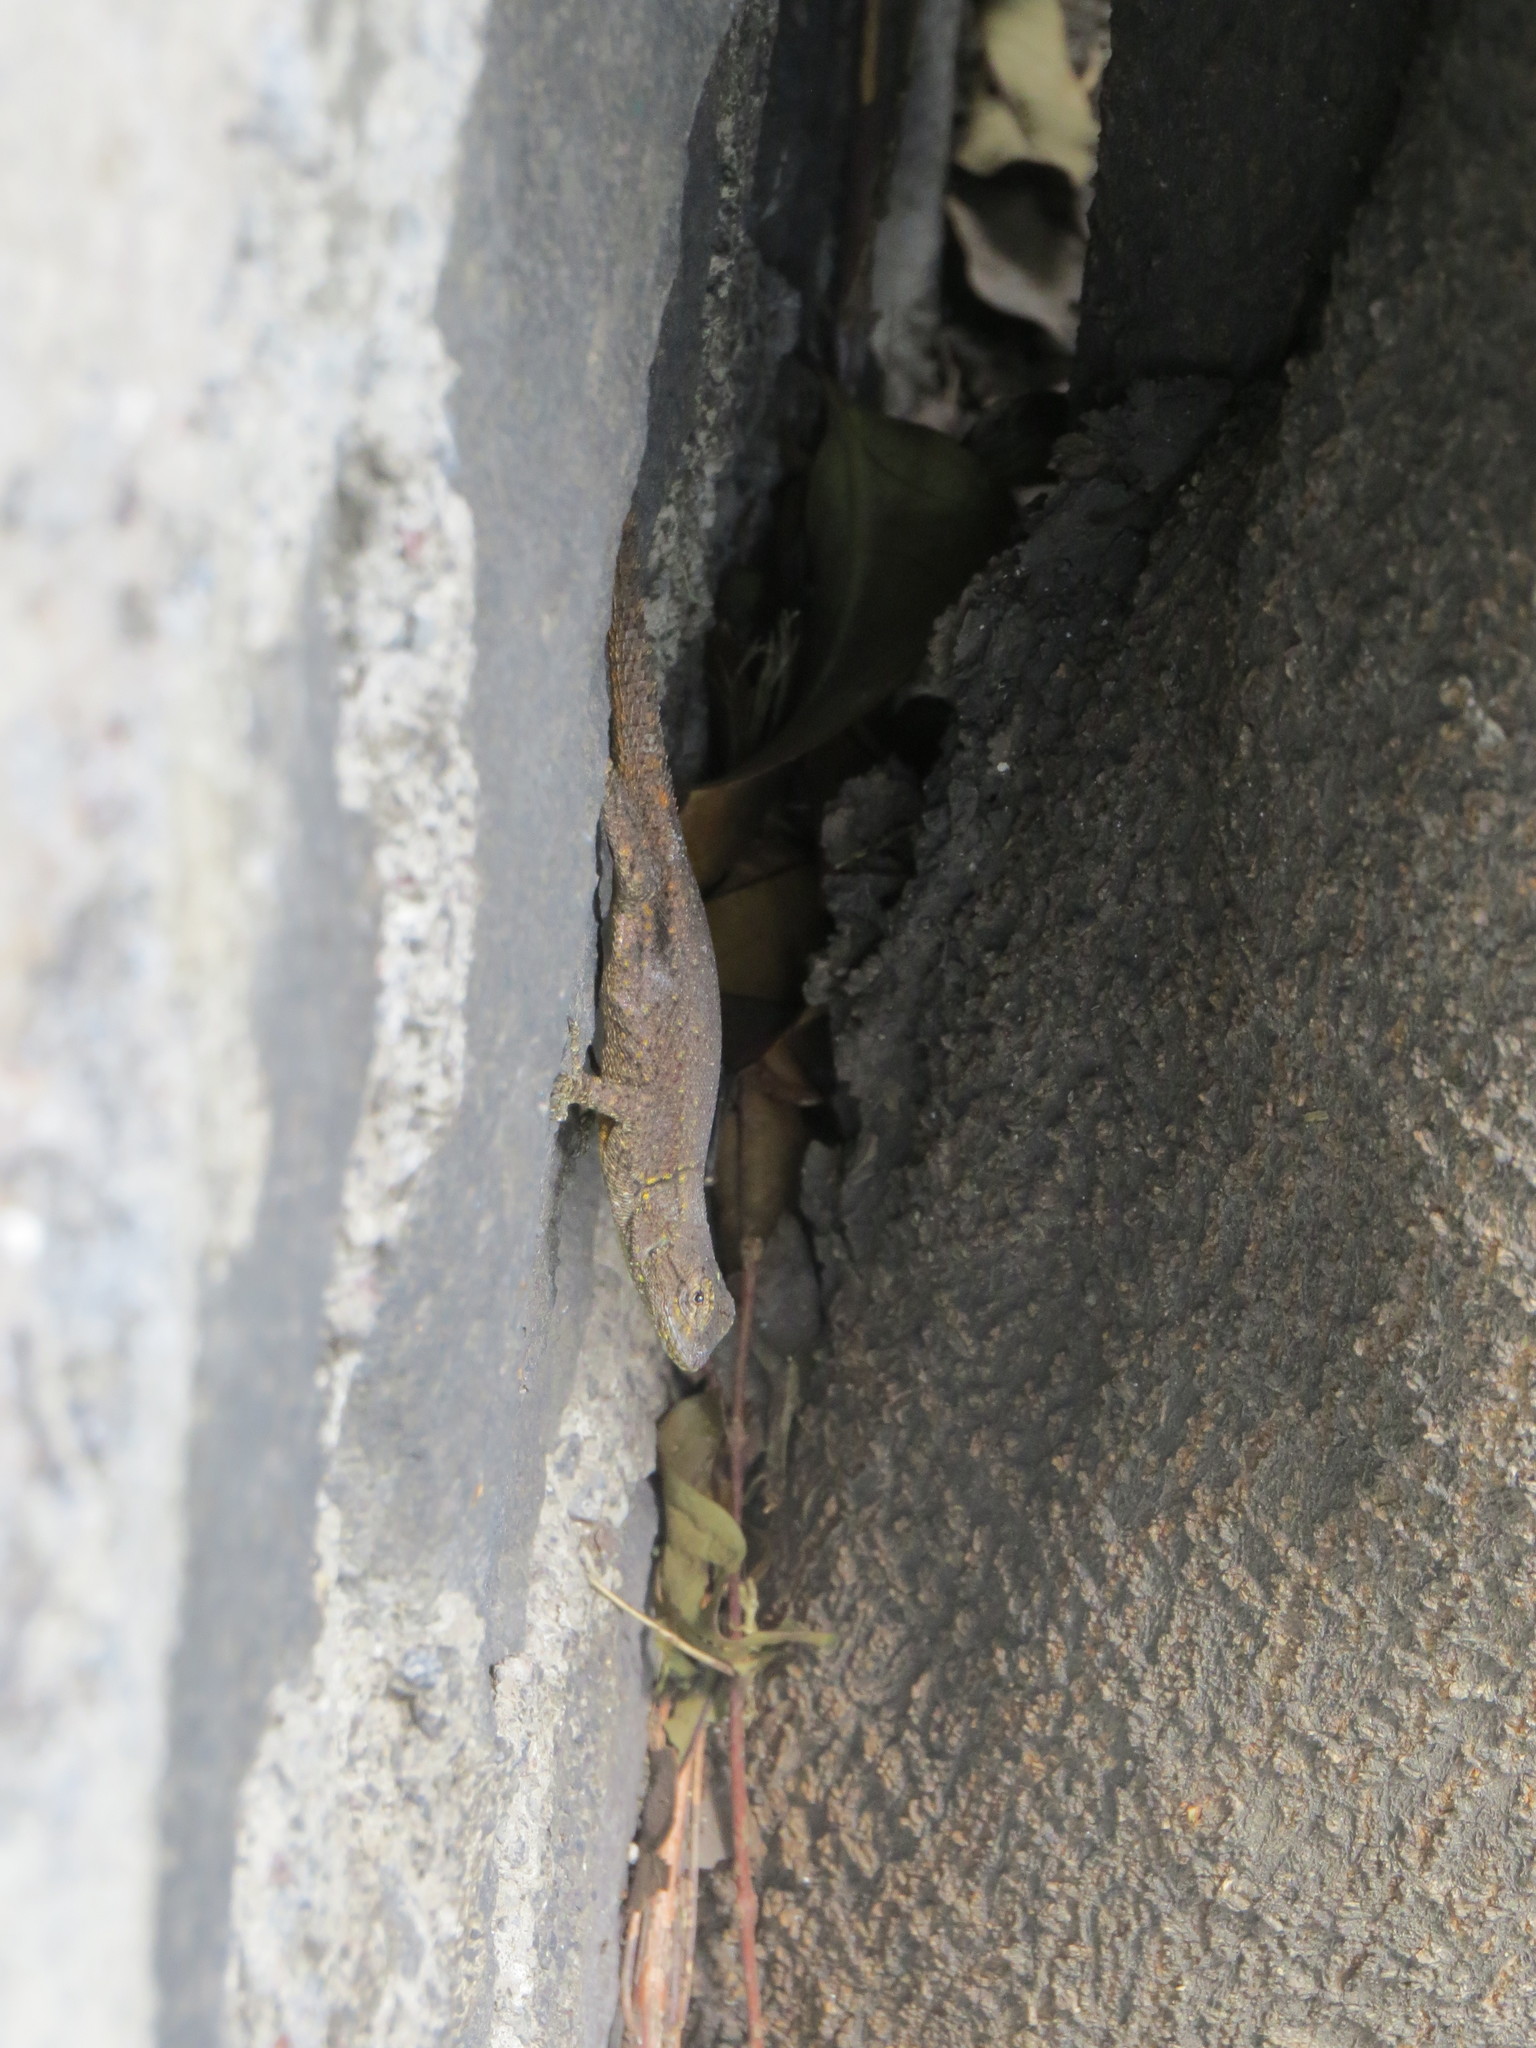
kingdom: Animalia
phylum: Chordata
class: Squamata
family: Phrynosomatidae
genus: Sceloporus
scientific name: Sceloporus grammicus
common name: Mesquite lizard
